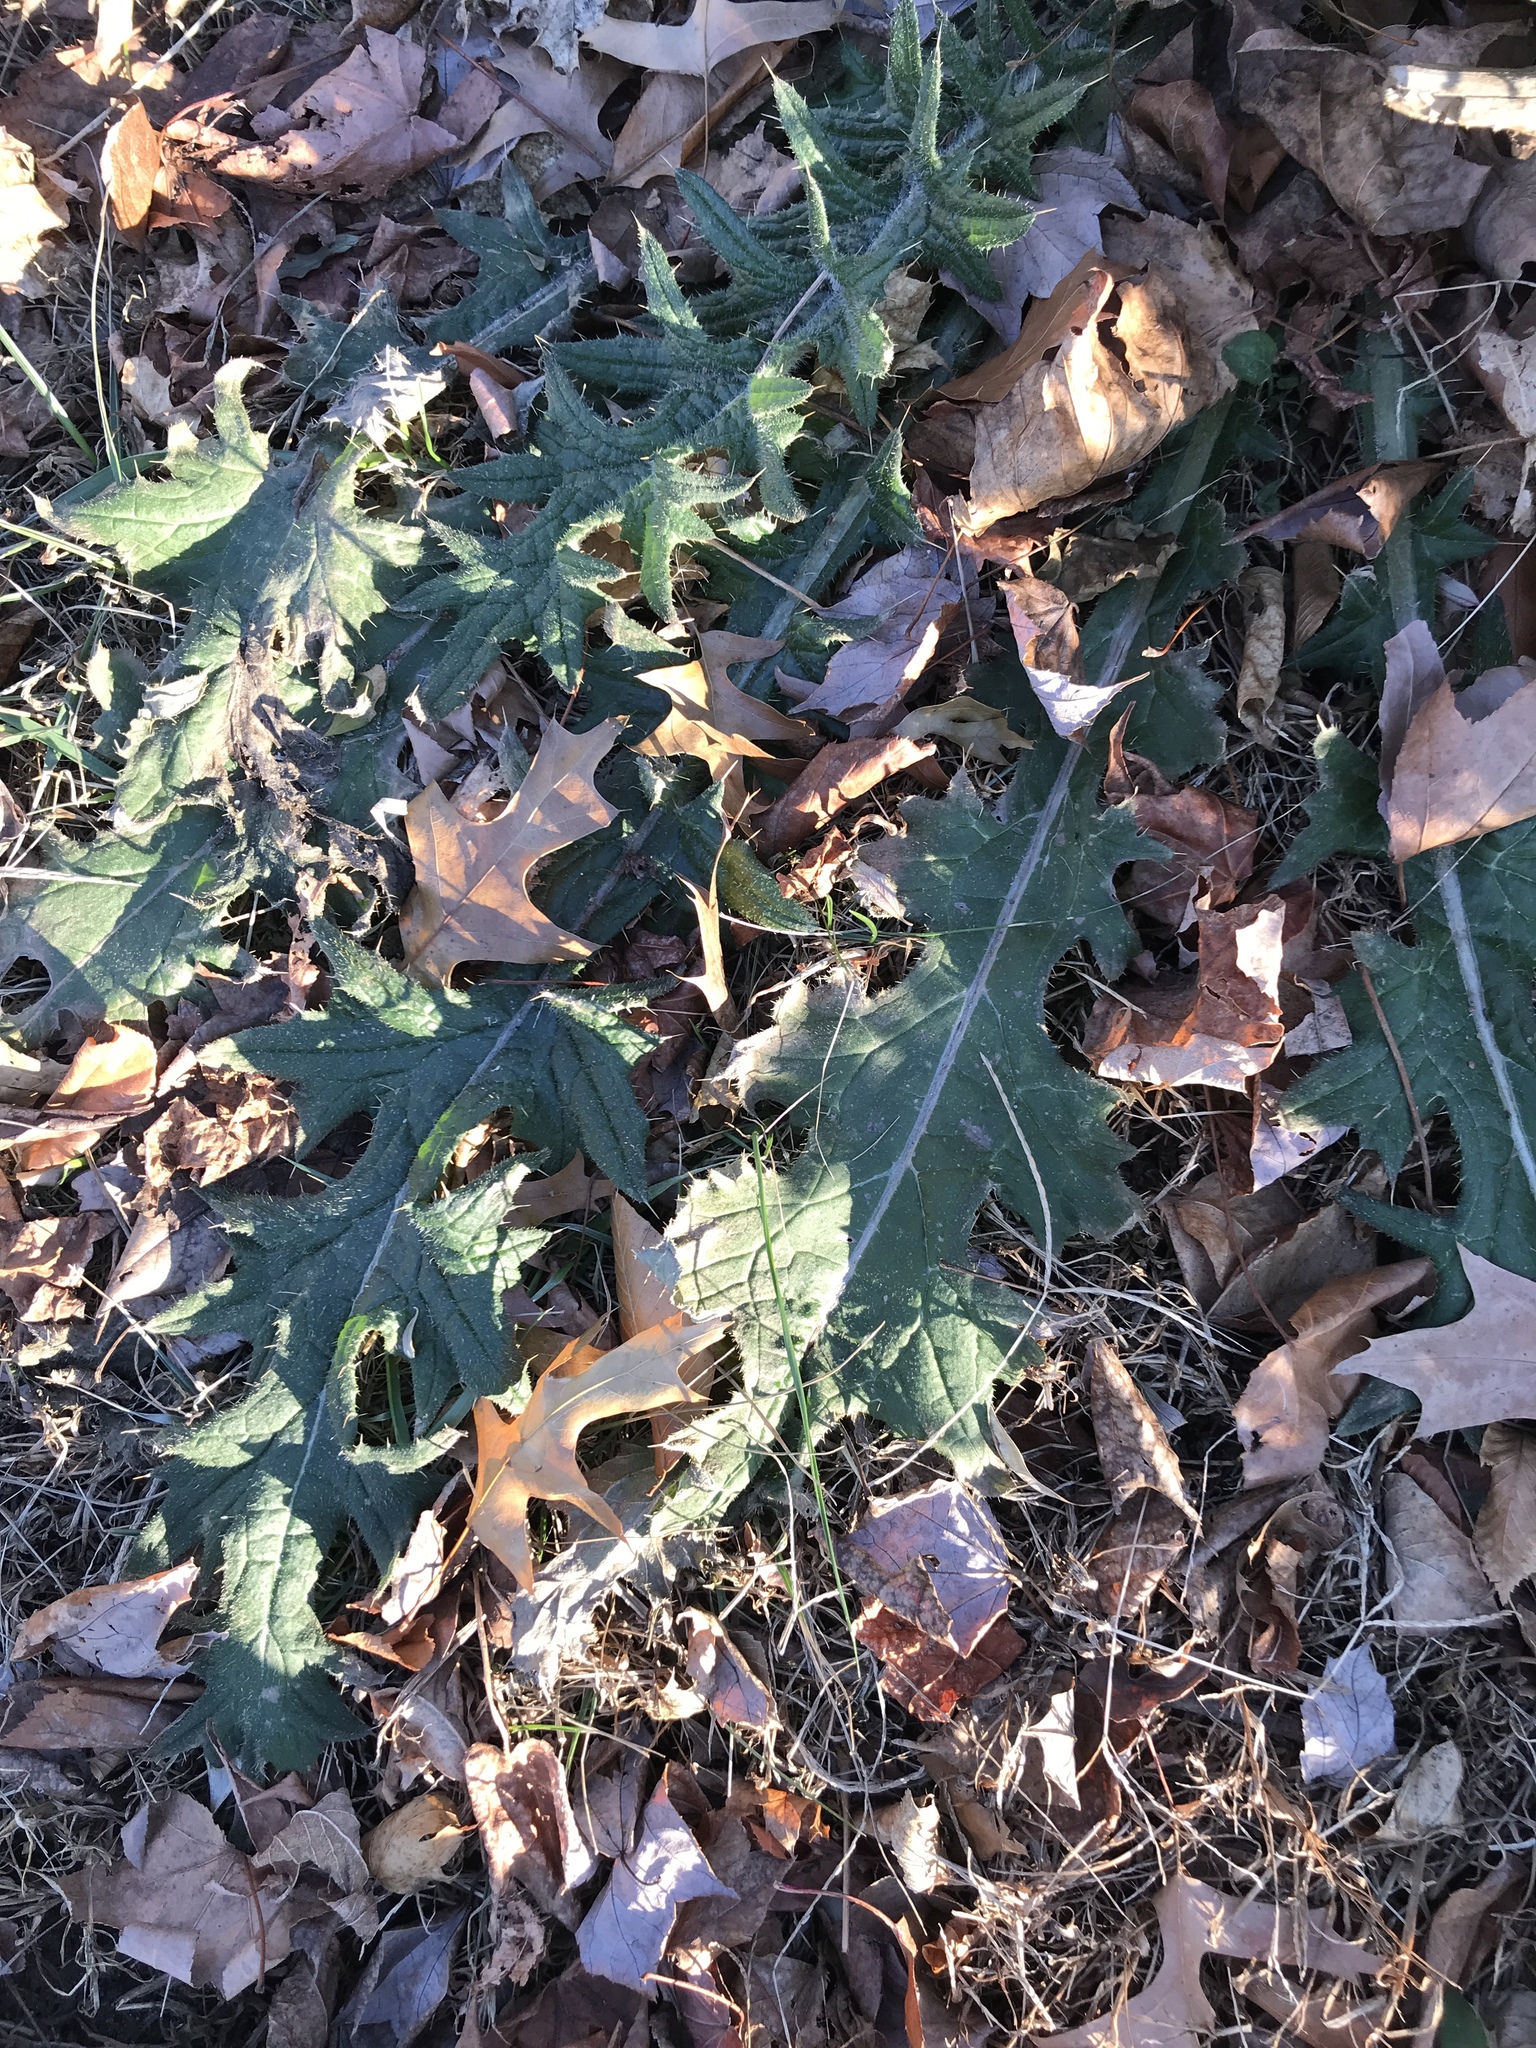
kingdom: Plantae
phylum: Tracheophyta
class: Magnoliopsida
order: Asterales
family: Asteraceae
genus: Cirsium
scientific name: Cirsium vulgare
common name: Bull thistle
